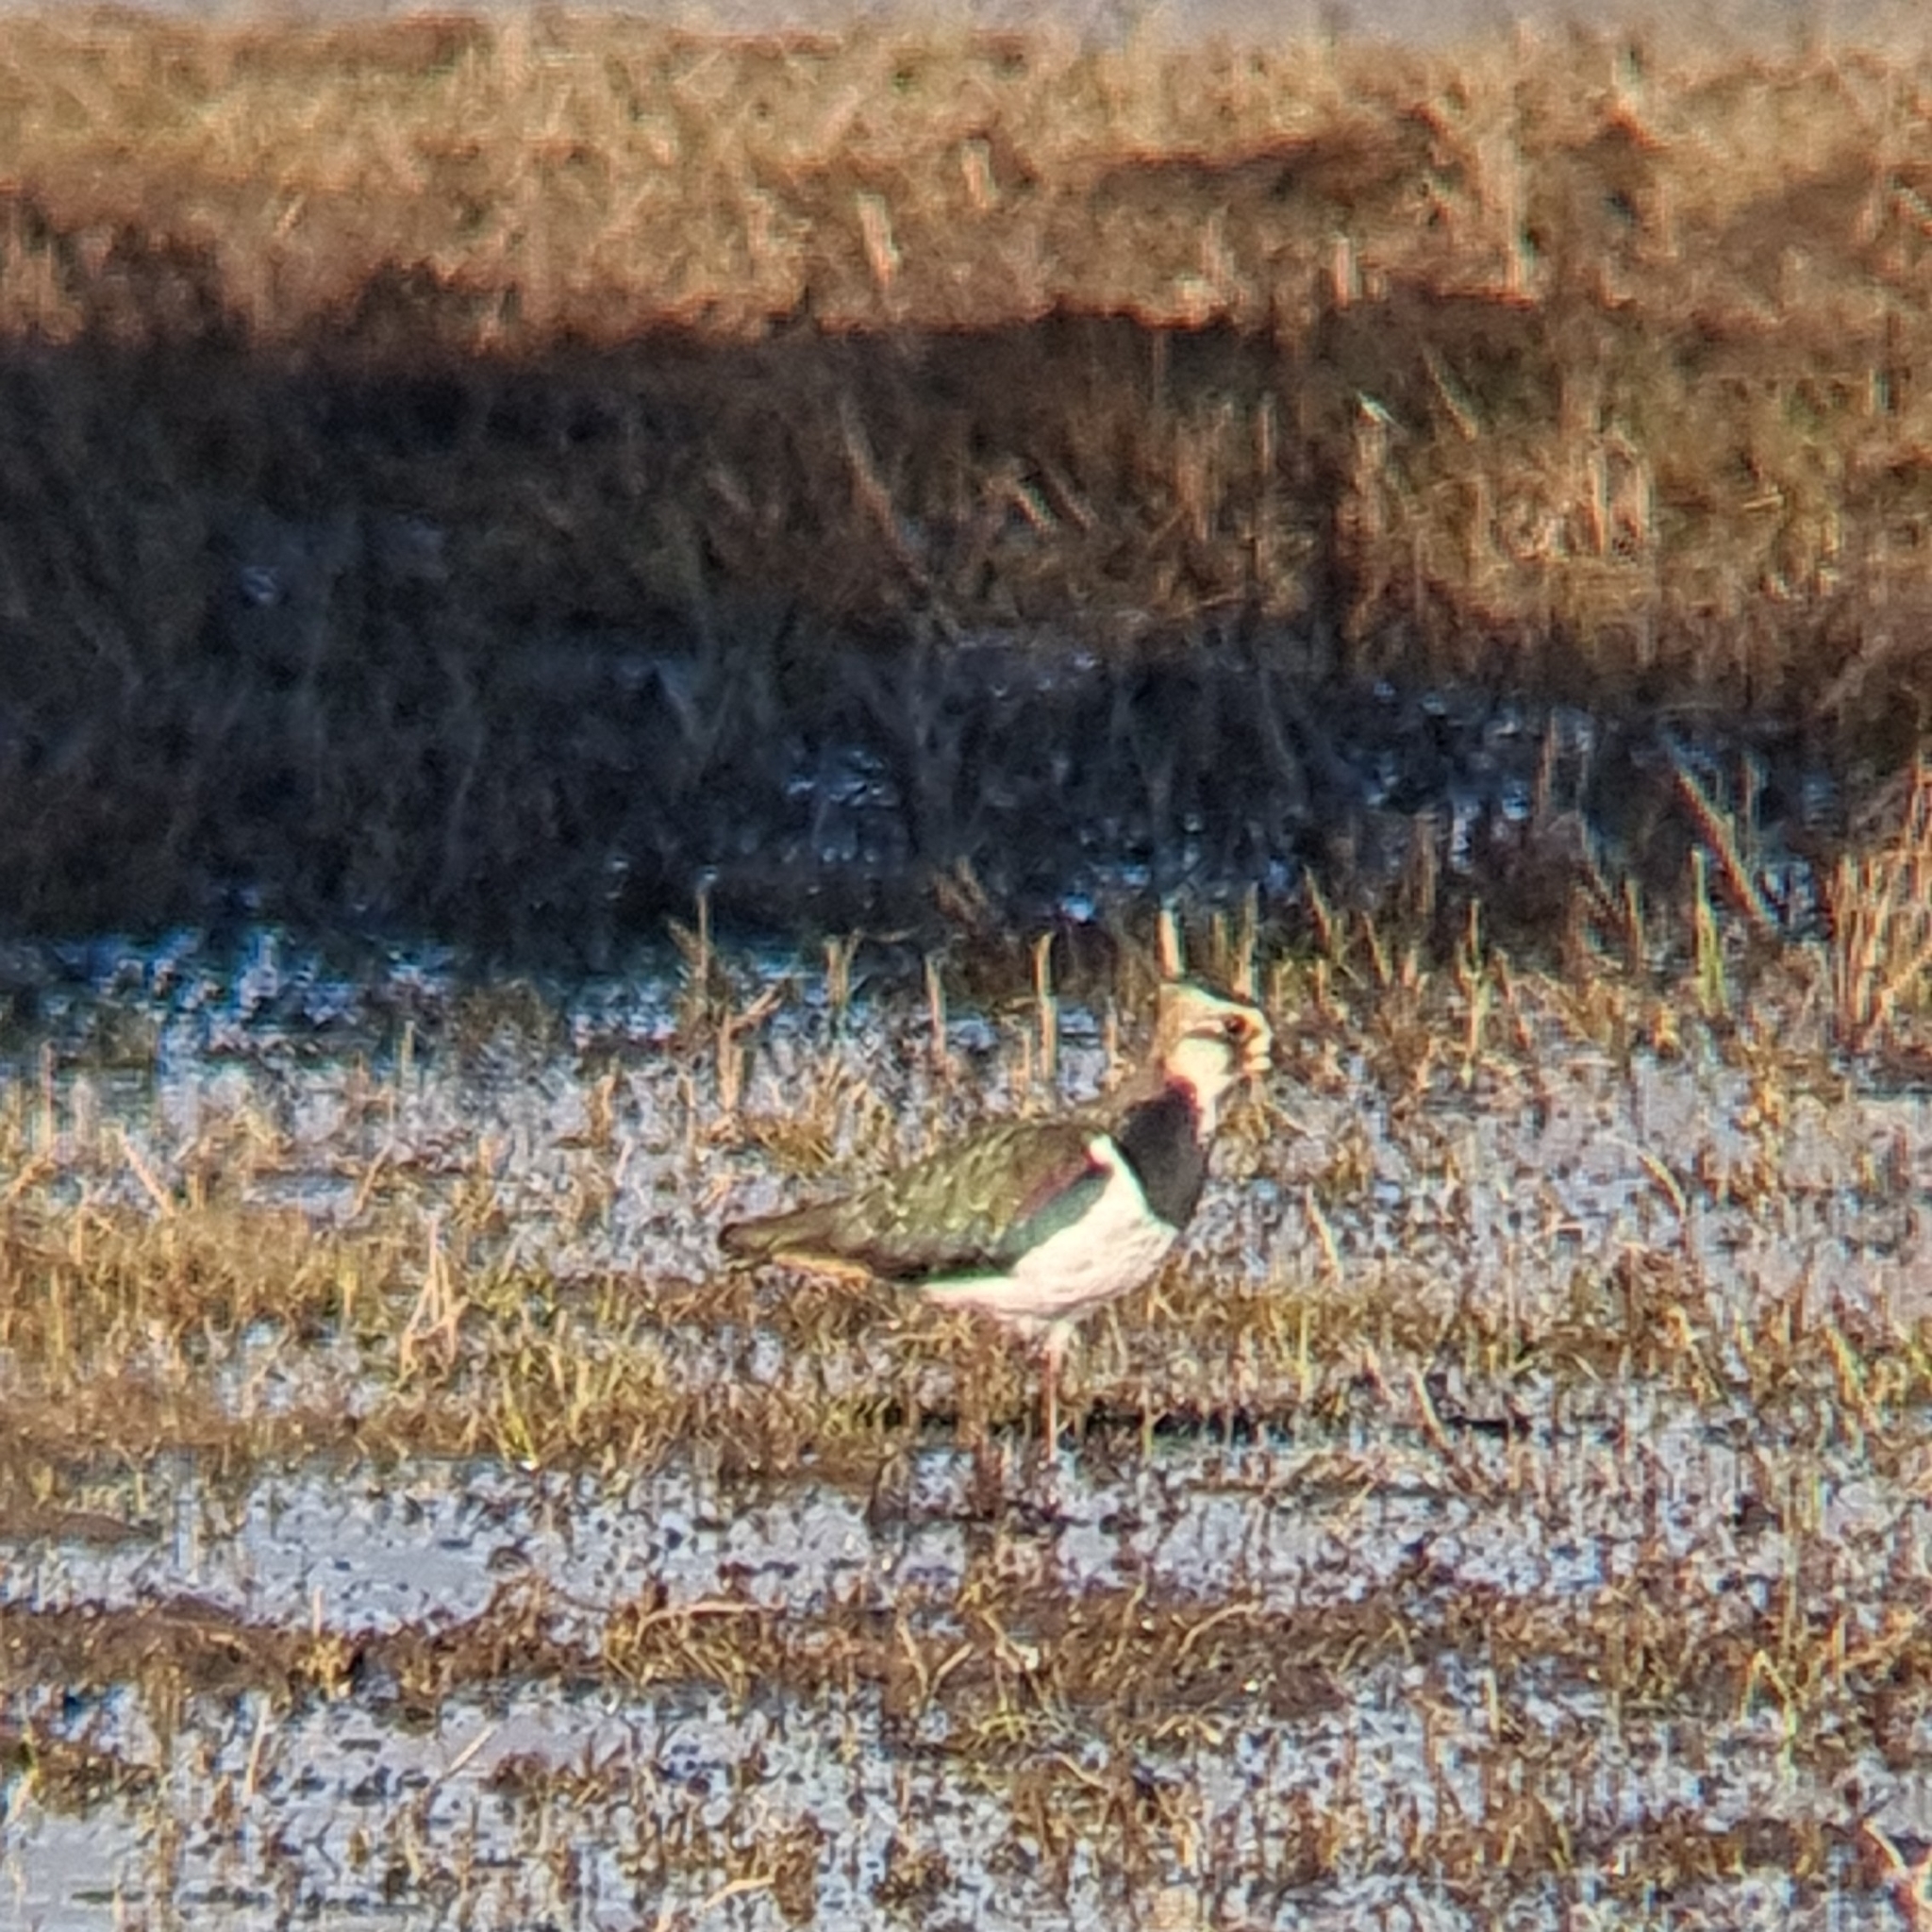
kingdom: Animalia
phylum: Chordata
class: Aves
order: Charadriiformes
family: Charadriidae
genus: Vanellus
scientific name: Vanellus vanellus
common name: Northern lapwing
